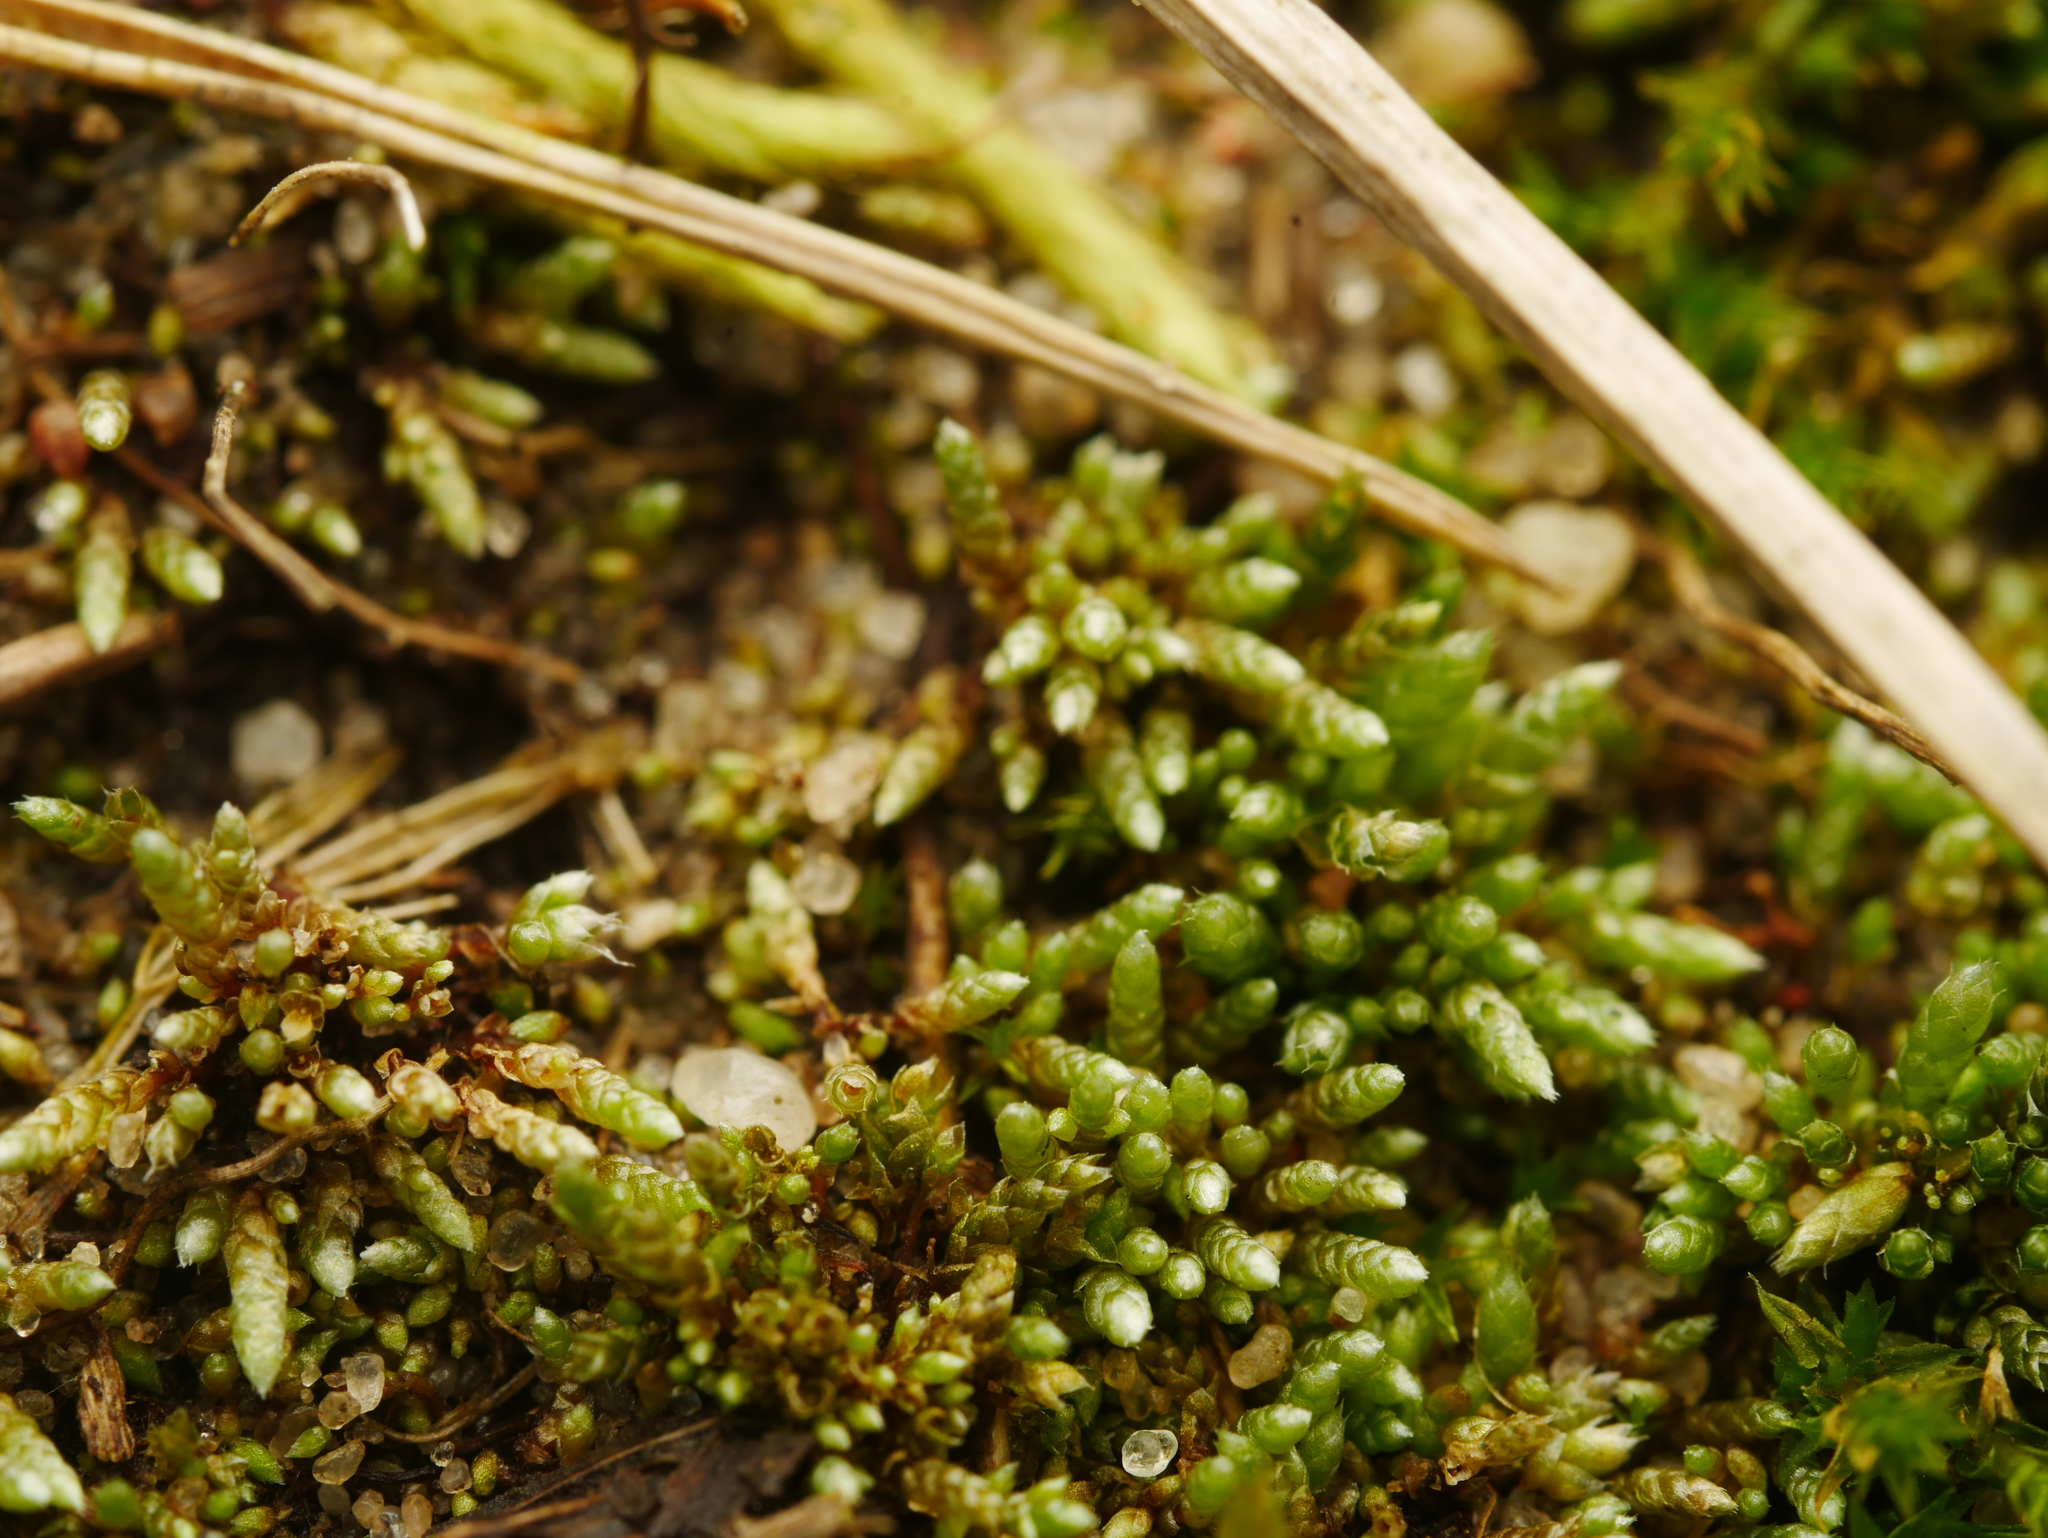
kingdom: Plantae
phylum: Bryophyta
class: Bryopsida
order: Bryales
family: Bryaceae
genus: Bryum
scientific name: Bryum argenteum
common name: Silver-moss
